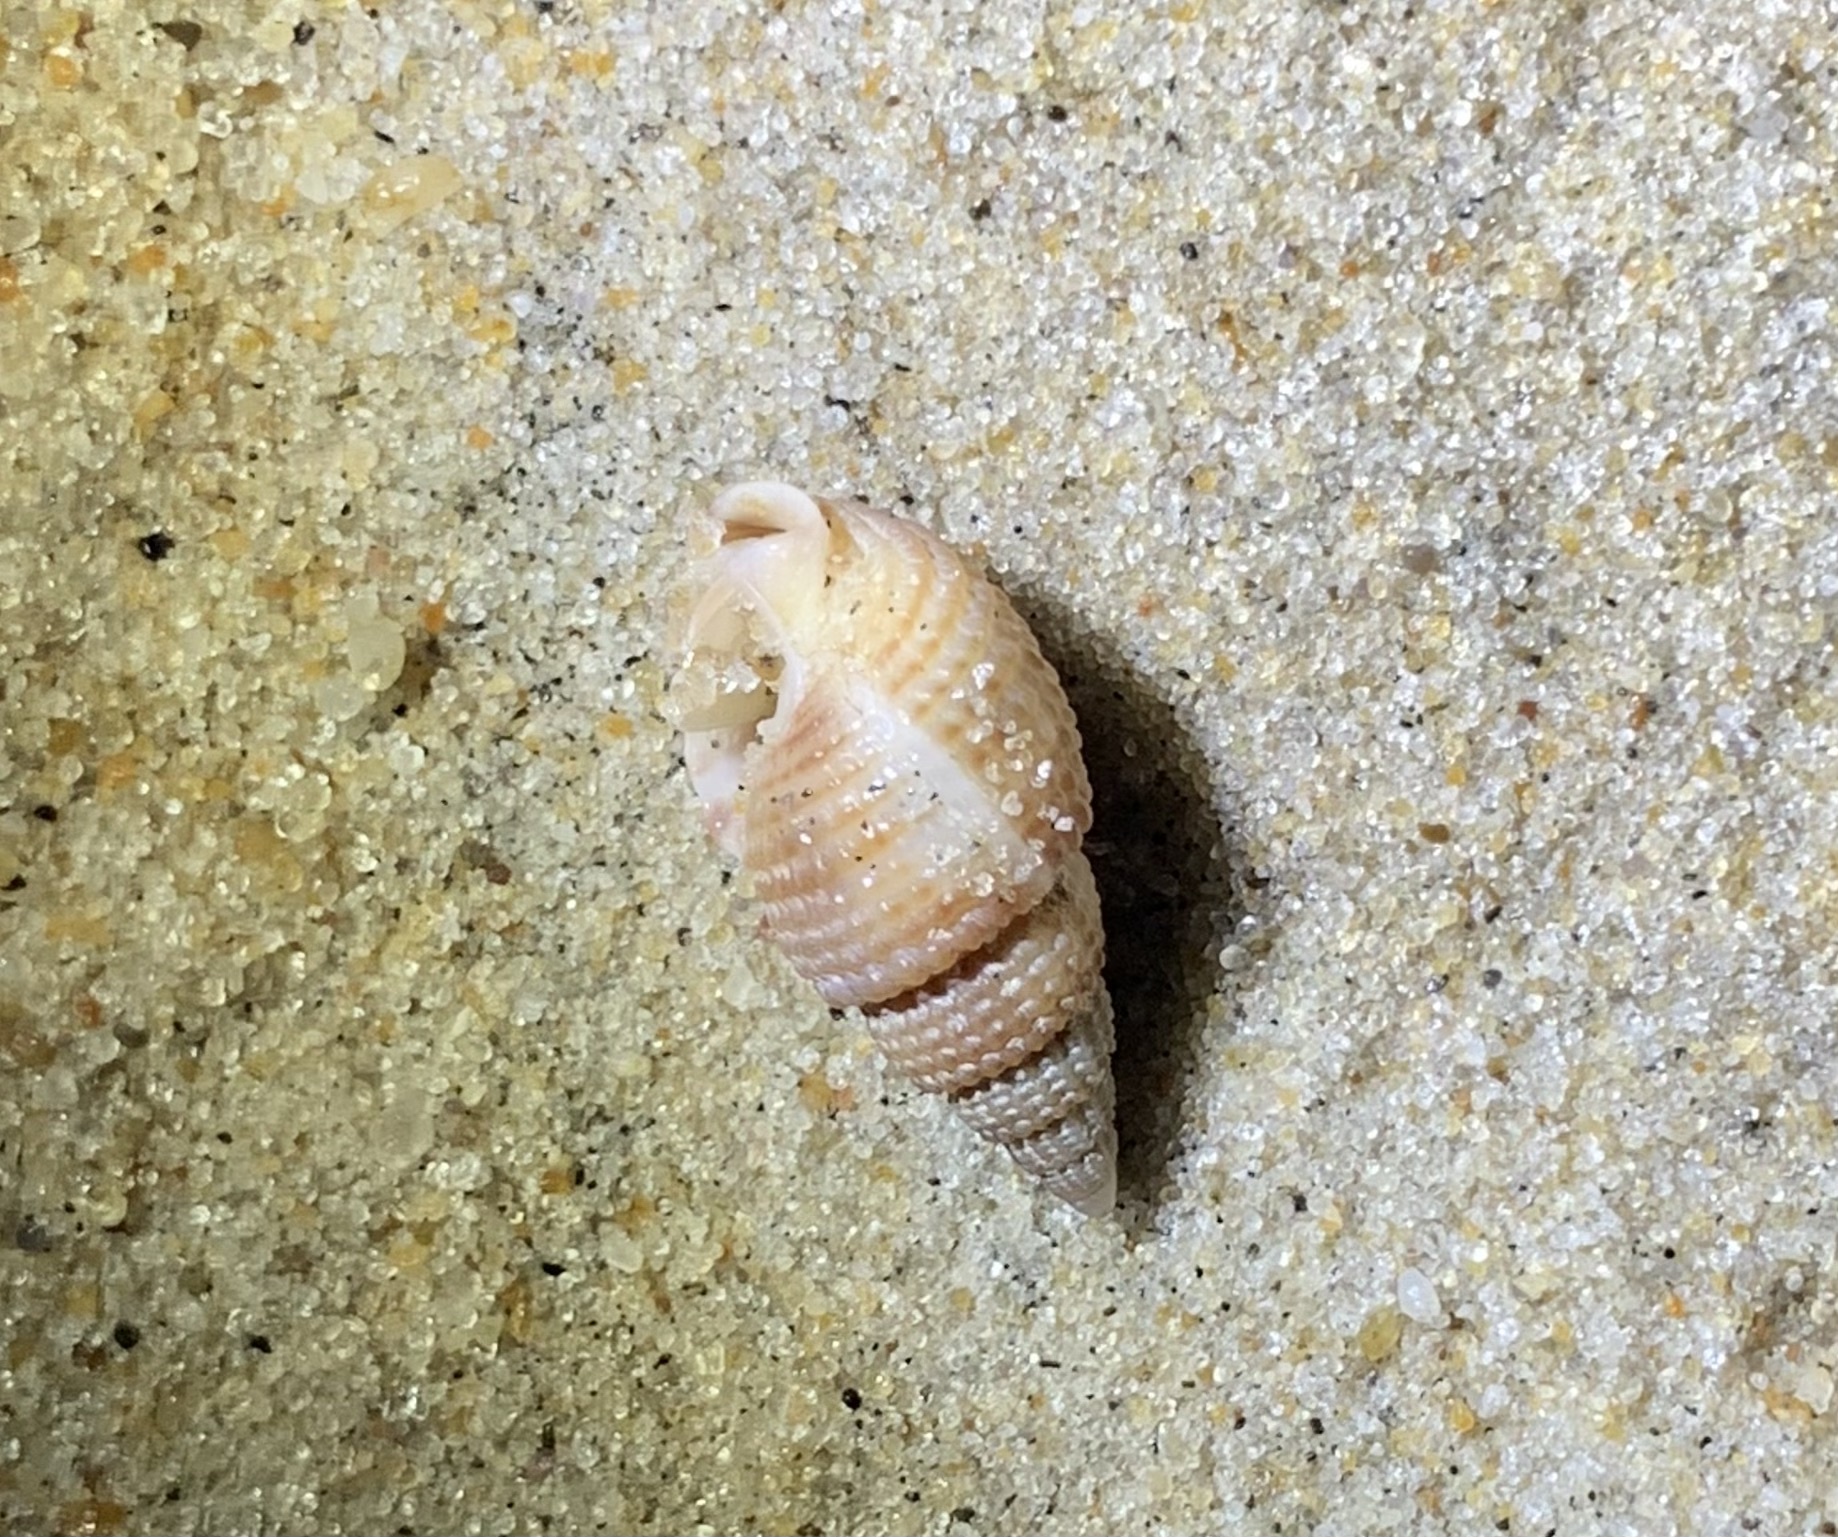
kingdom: Animalia
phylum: Mollusca
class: Gastropoda
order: Neogastropoda
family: Nassariidae
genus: Ilyanassa
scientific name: Ilyanassa trivittata
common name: Three-line mudsnail
